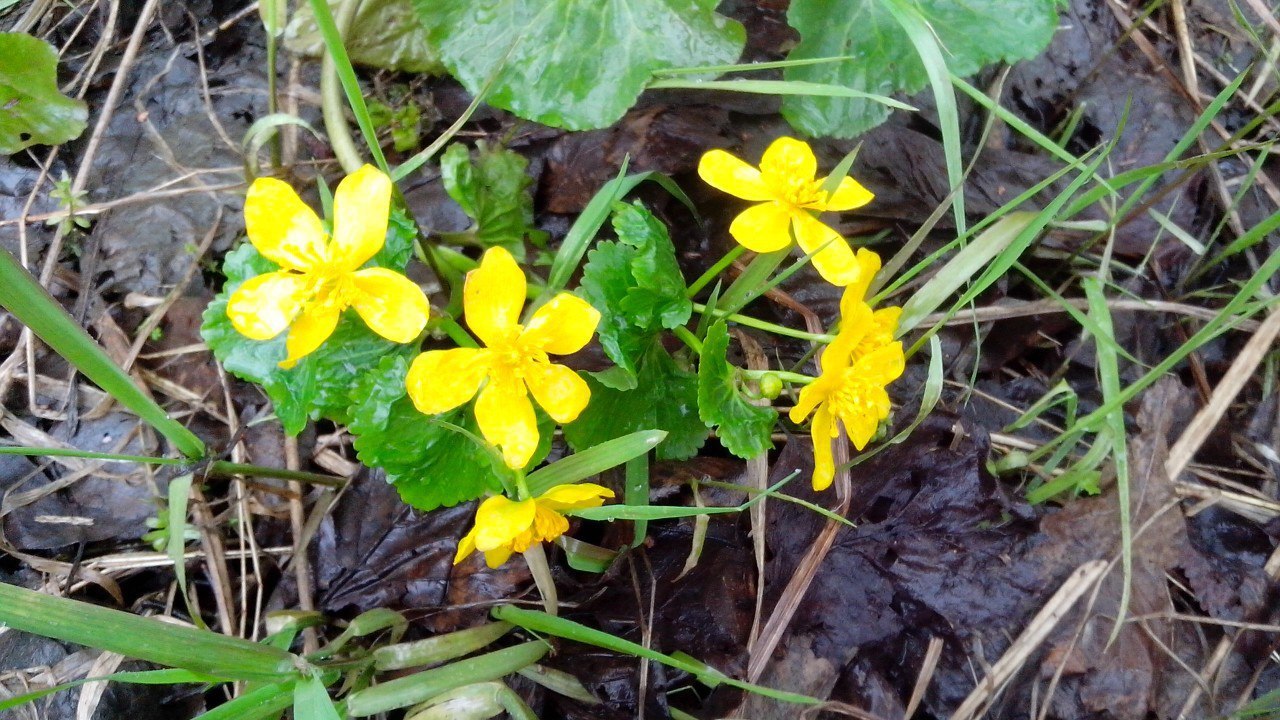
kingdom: Plantae
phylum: Tracheophyta
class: Magnoliopsida
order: Ranunculales
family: Ranunculaceae
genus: Caltha
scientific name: Caltha palustris
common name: Marsh marigold
